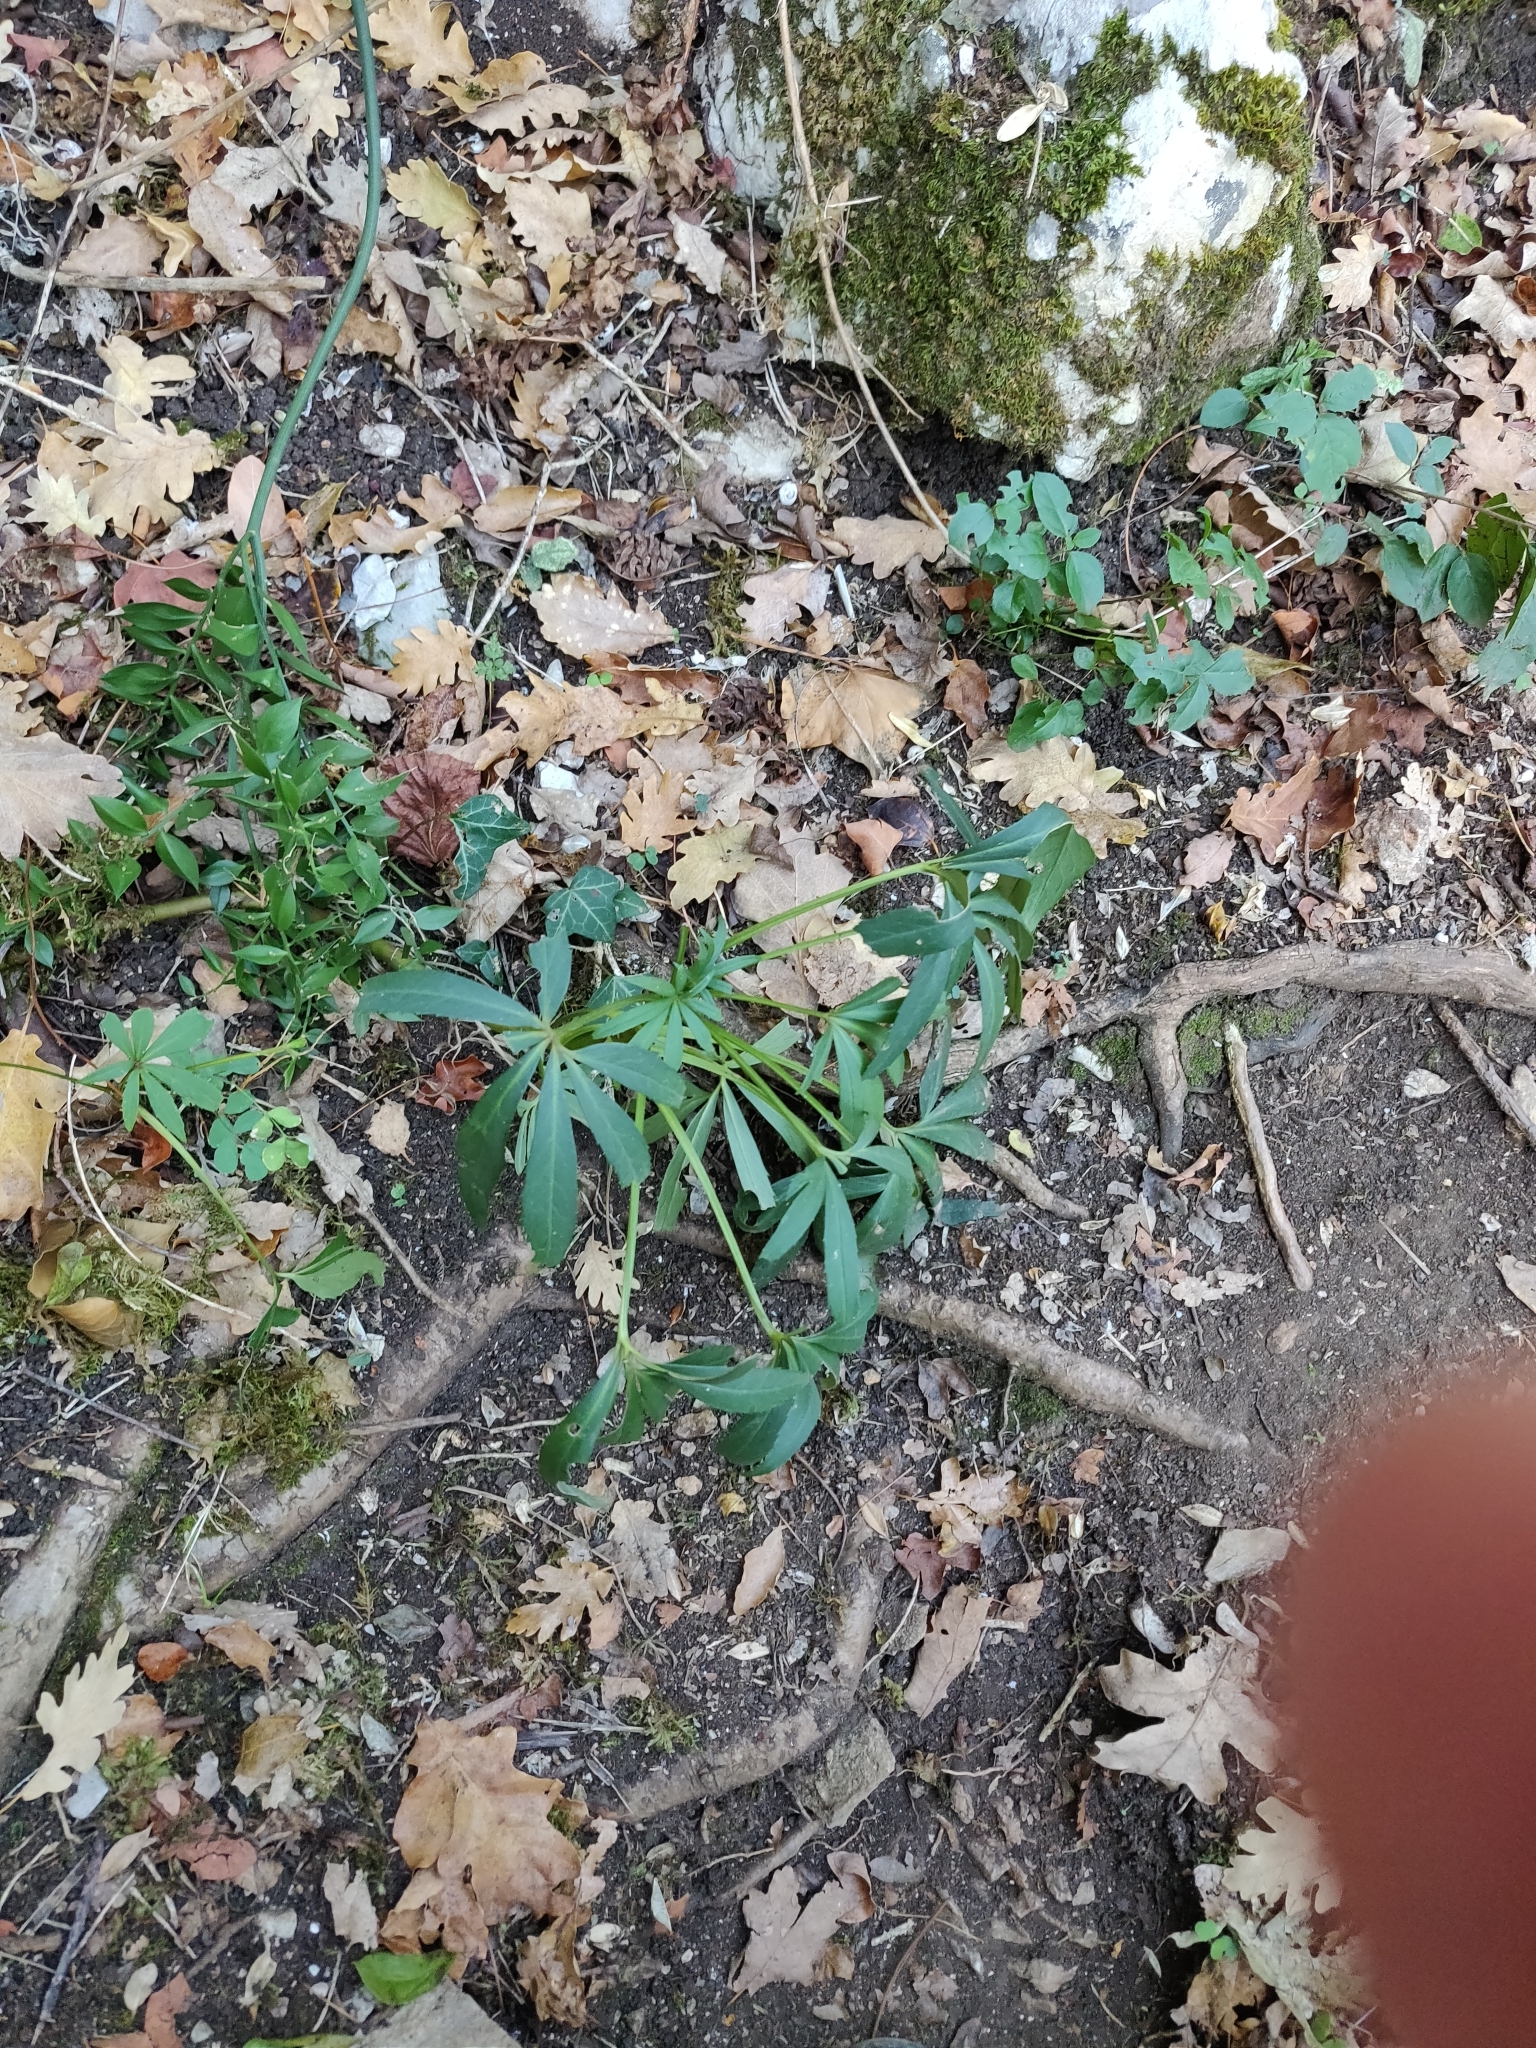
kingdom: Plantae
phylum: Tracheophyta
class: Magnoliopsida
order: Ranunculales
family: Ranunculaceae
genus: Helleborus
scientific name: Helleborus foetidus
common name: Stinking hellebore
